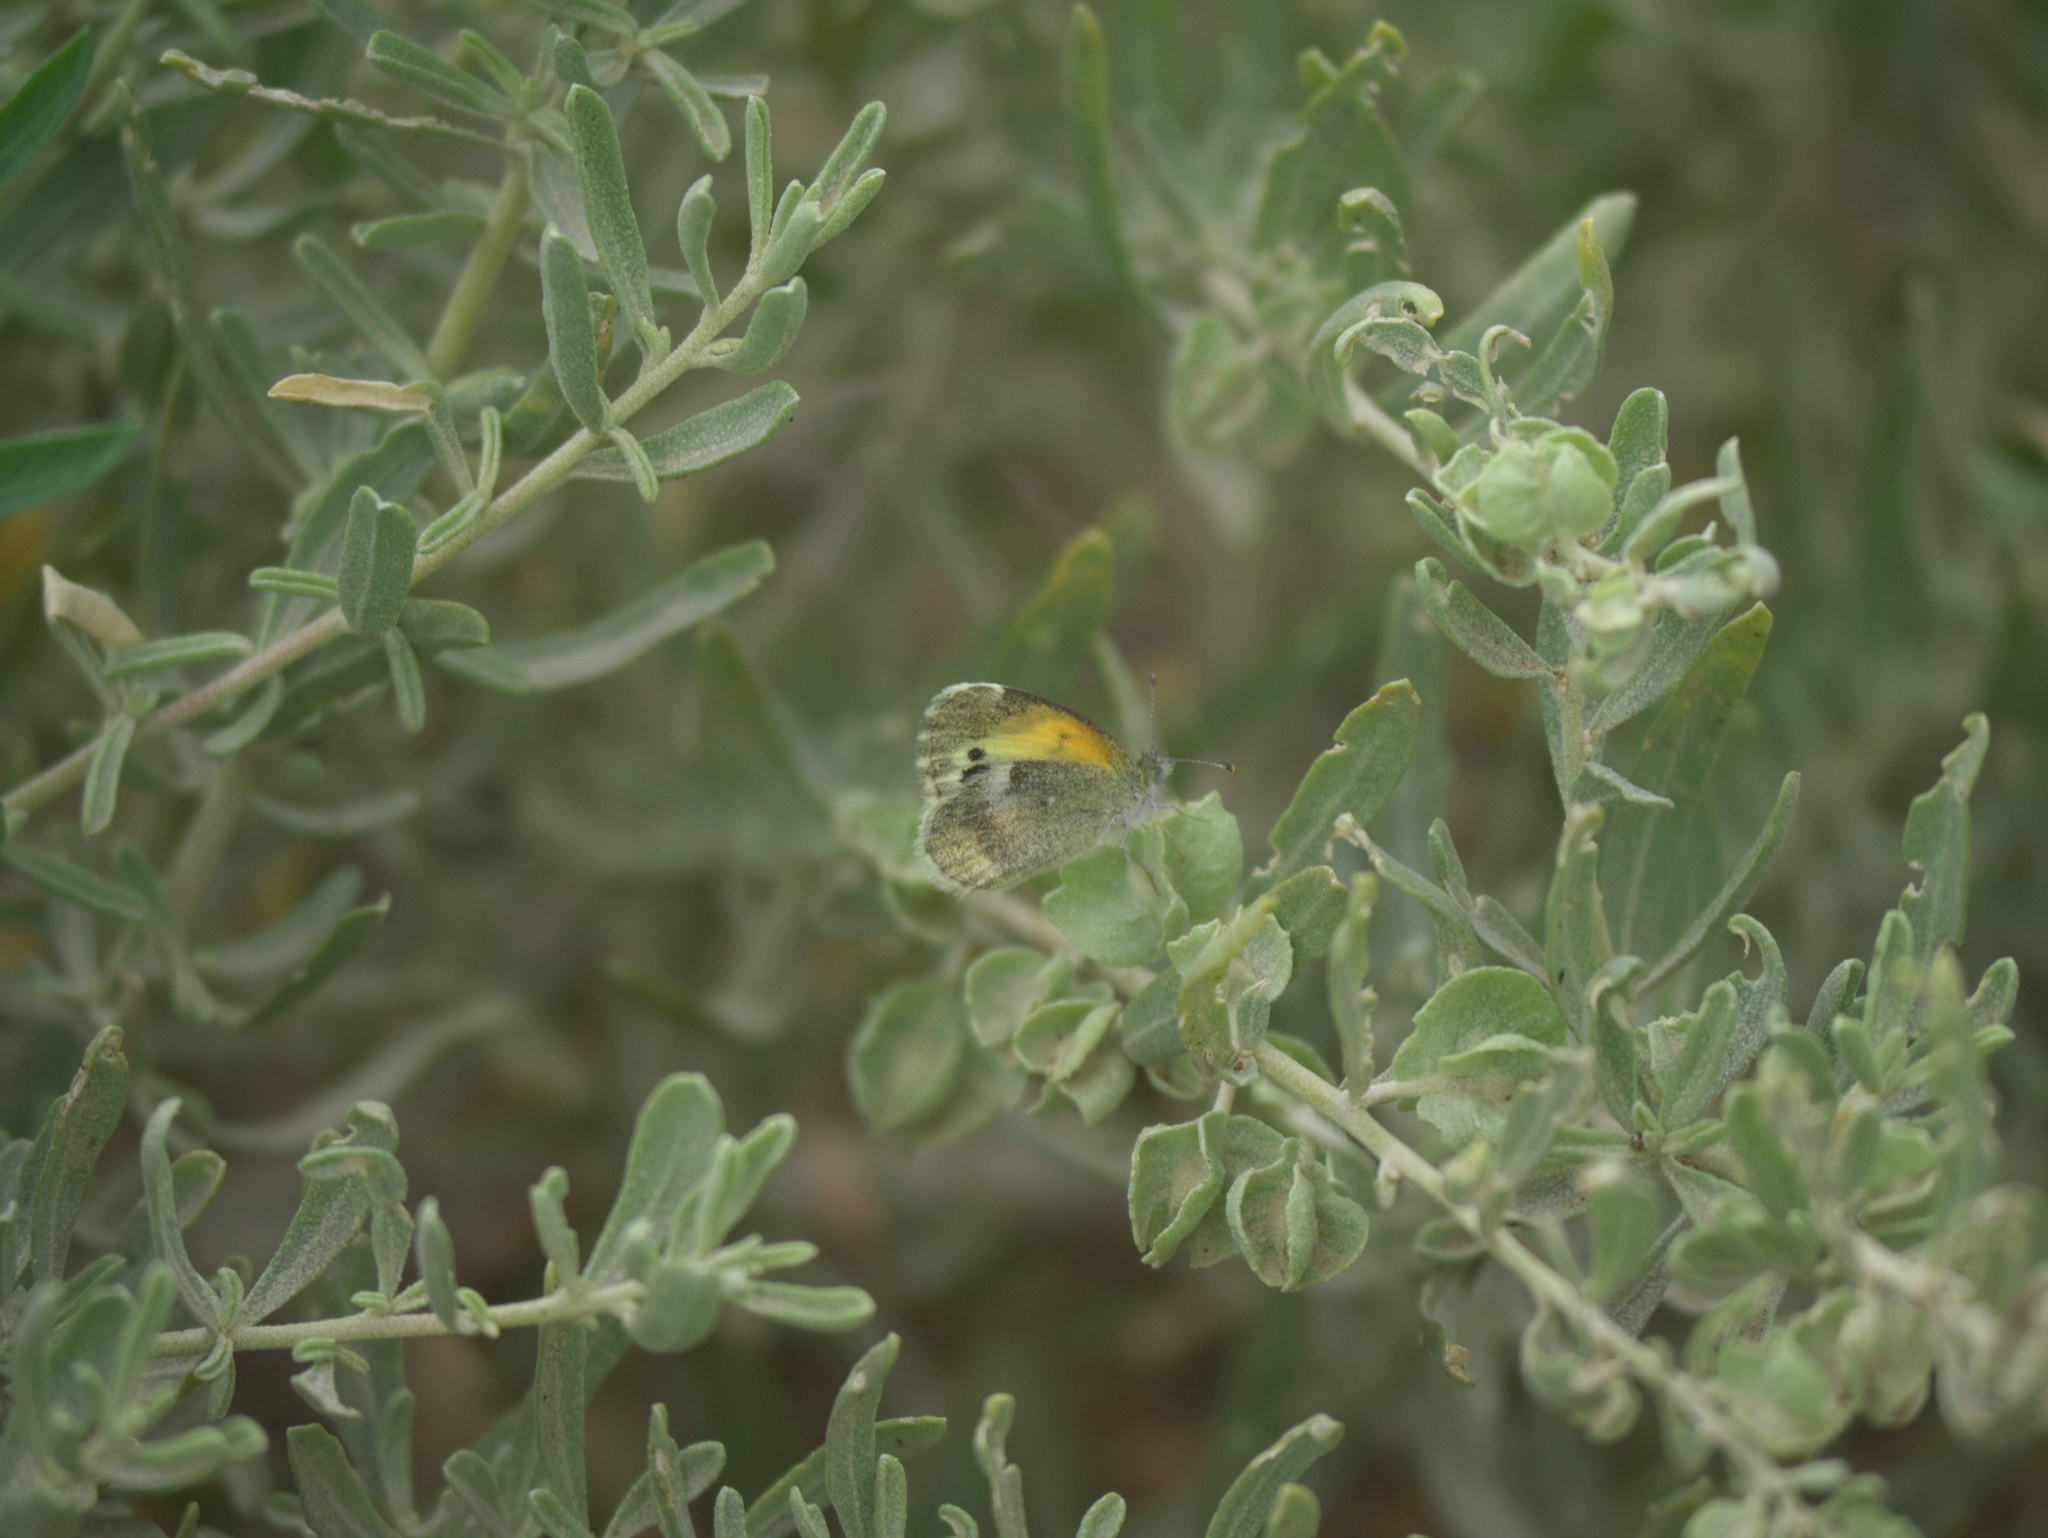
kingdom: Plantae
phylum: Tracheophyta
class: Magnoliopsida
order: Caryophyllales
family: Amaranthaceae
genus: Atriplex
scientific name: Atriplex canescens
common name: Four-wing saltbush
